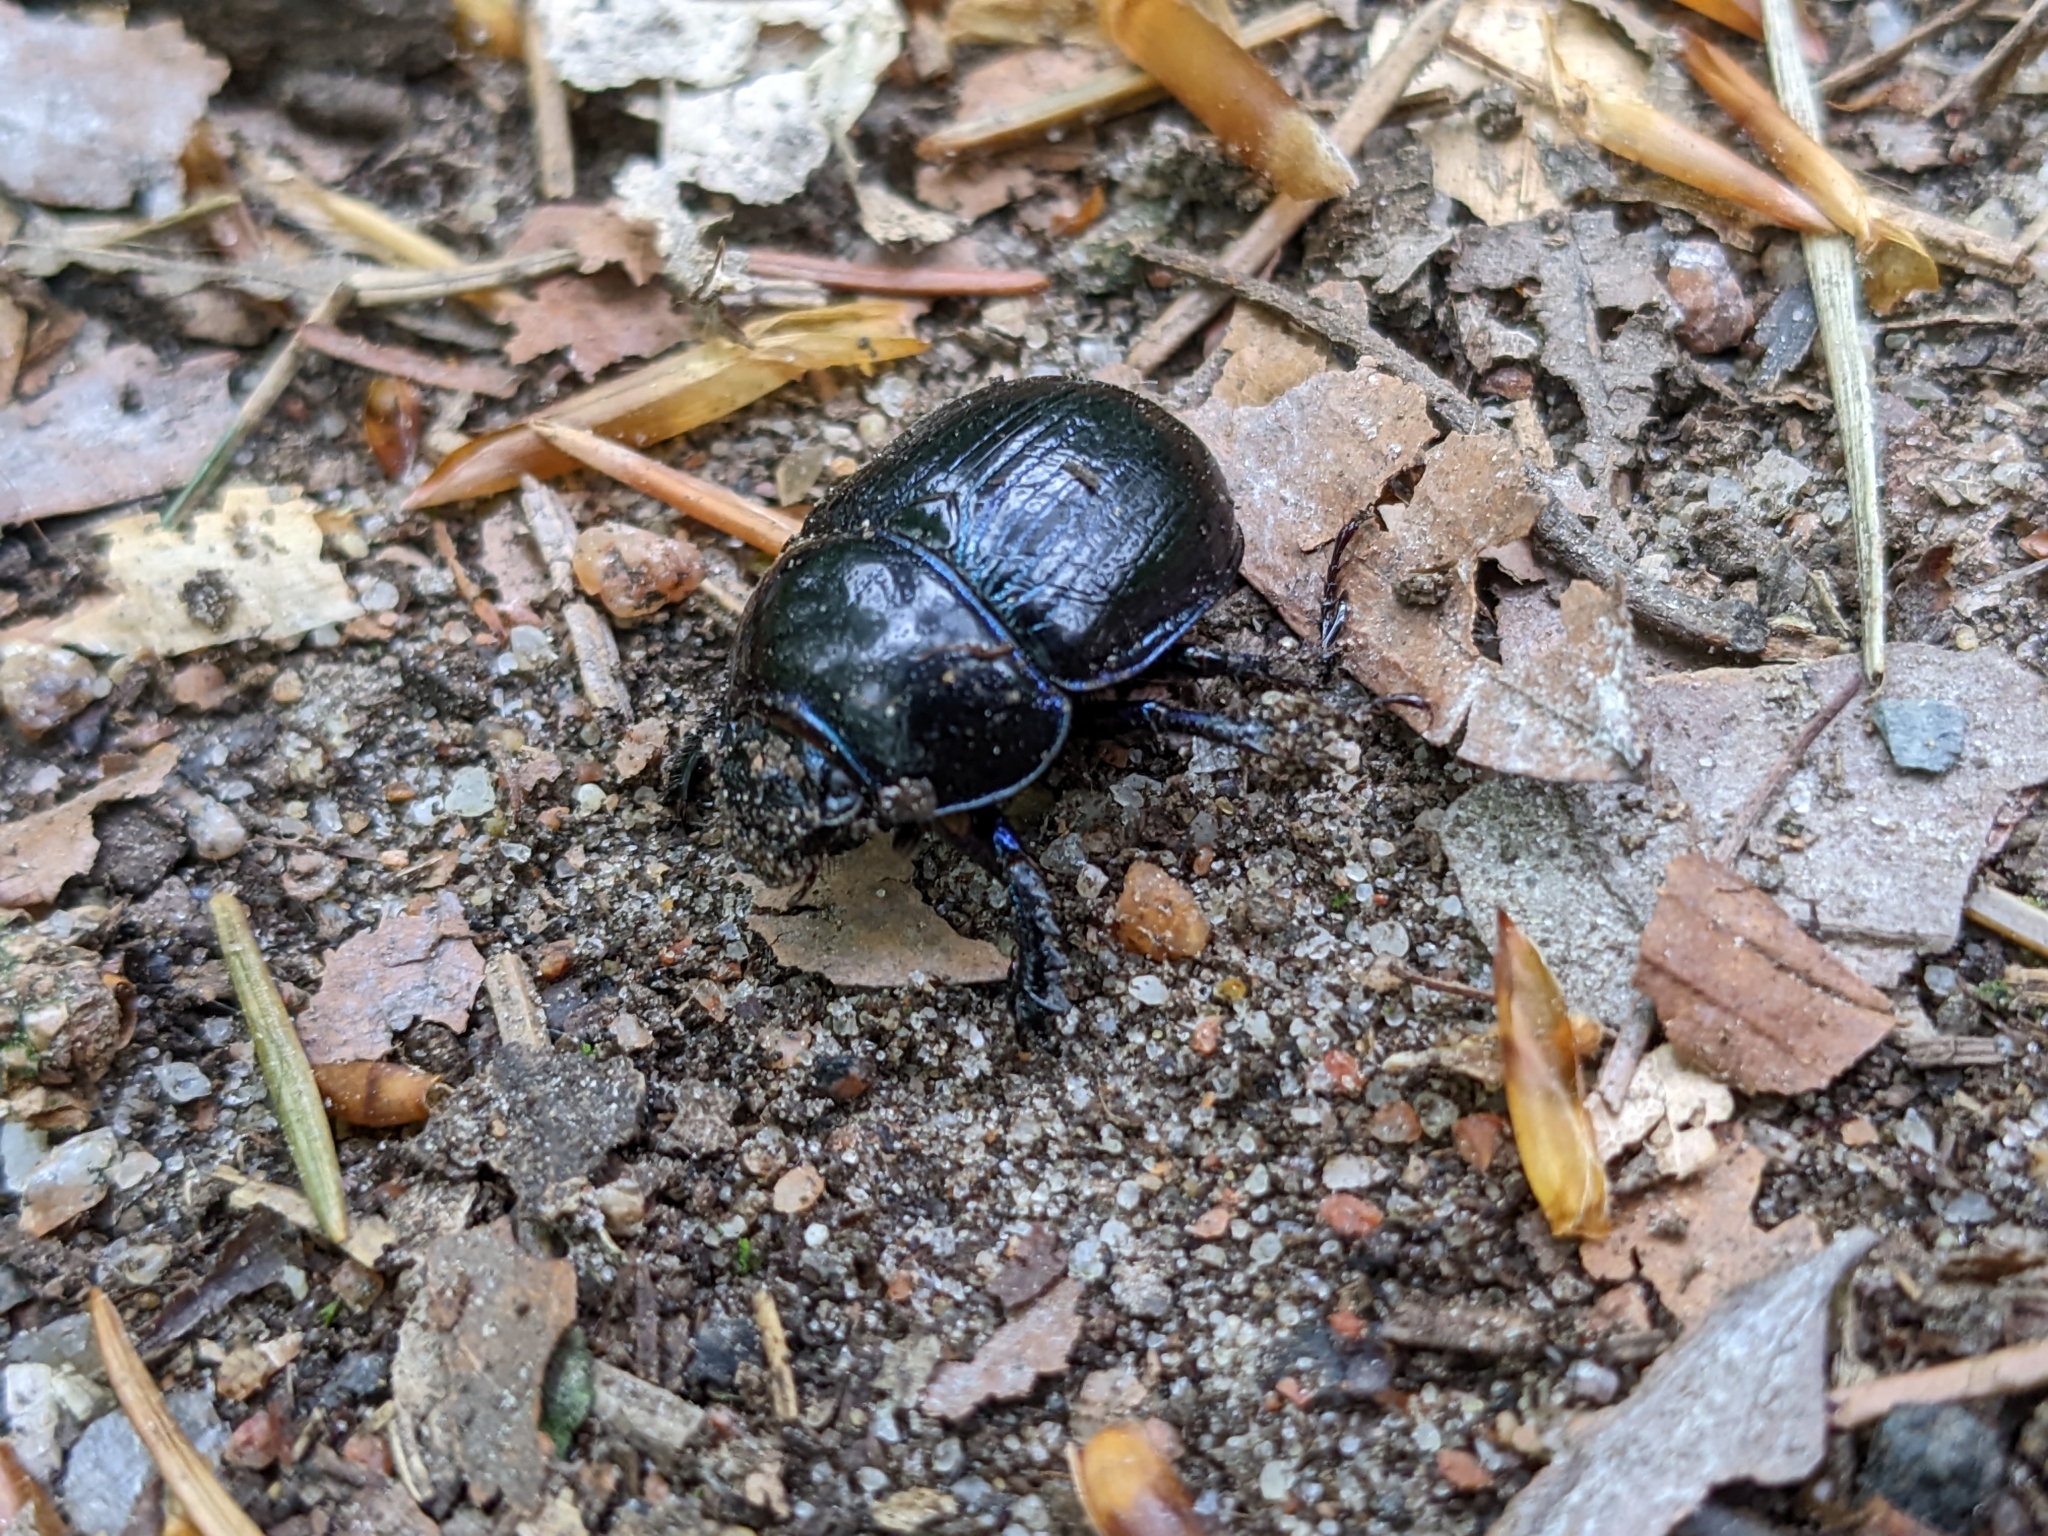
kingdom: Animalia
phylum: Arthropoda
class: Insecta
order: Coleoptera
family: Geotrupidae
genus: Anoplotrupes
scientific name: Anoplotrupes stercorosus
